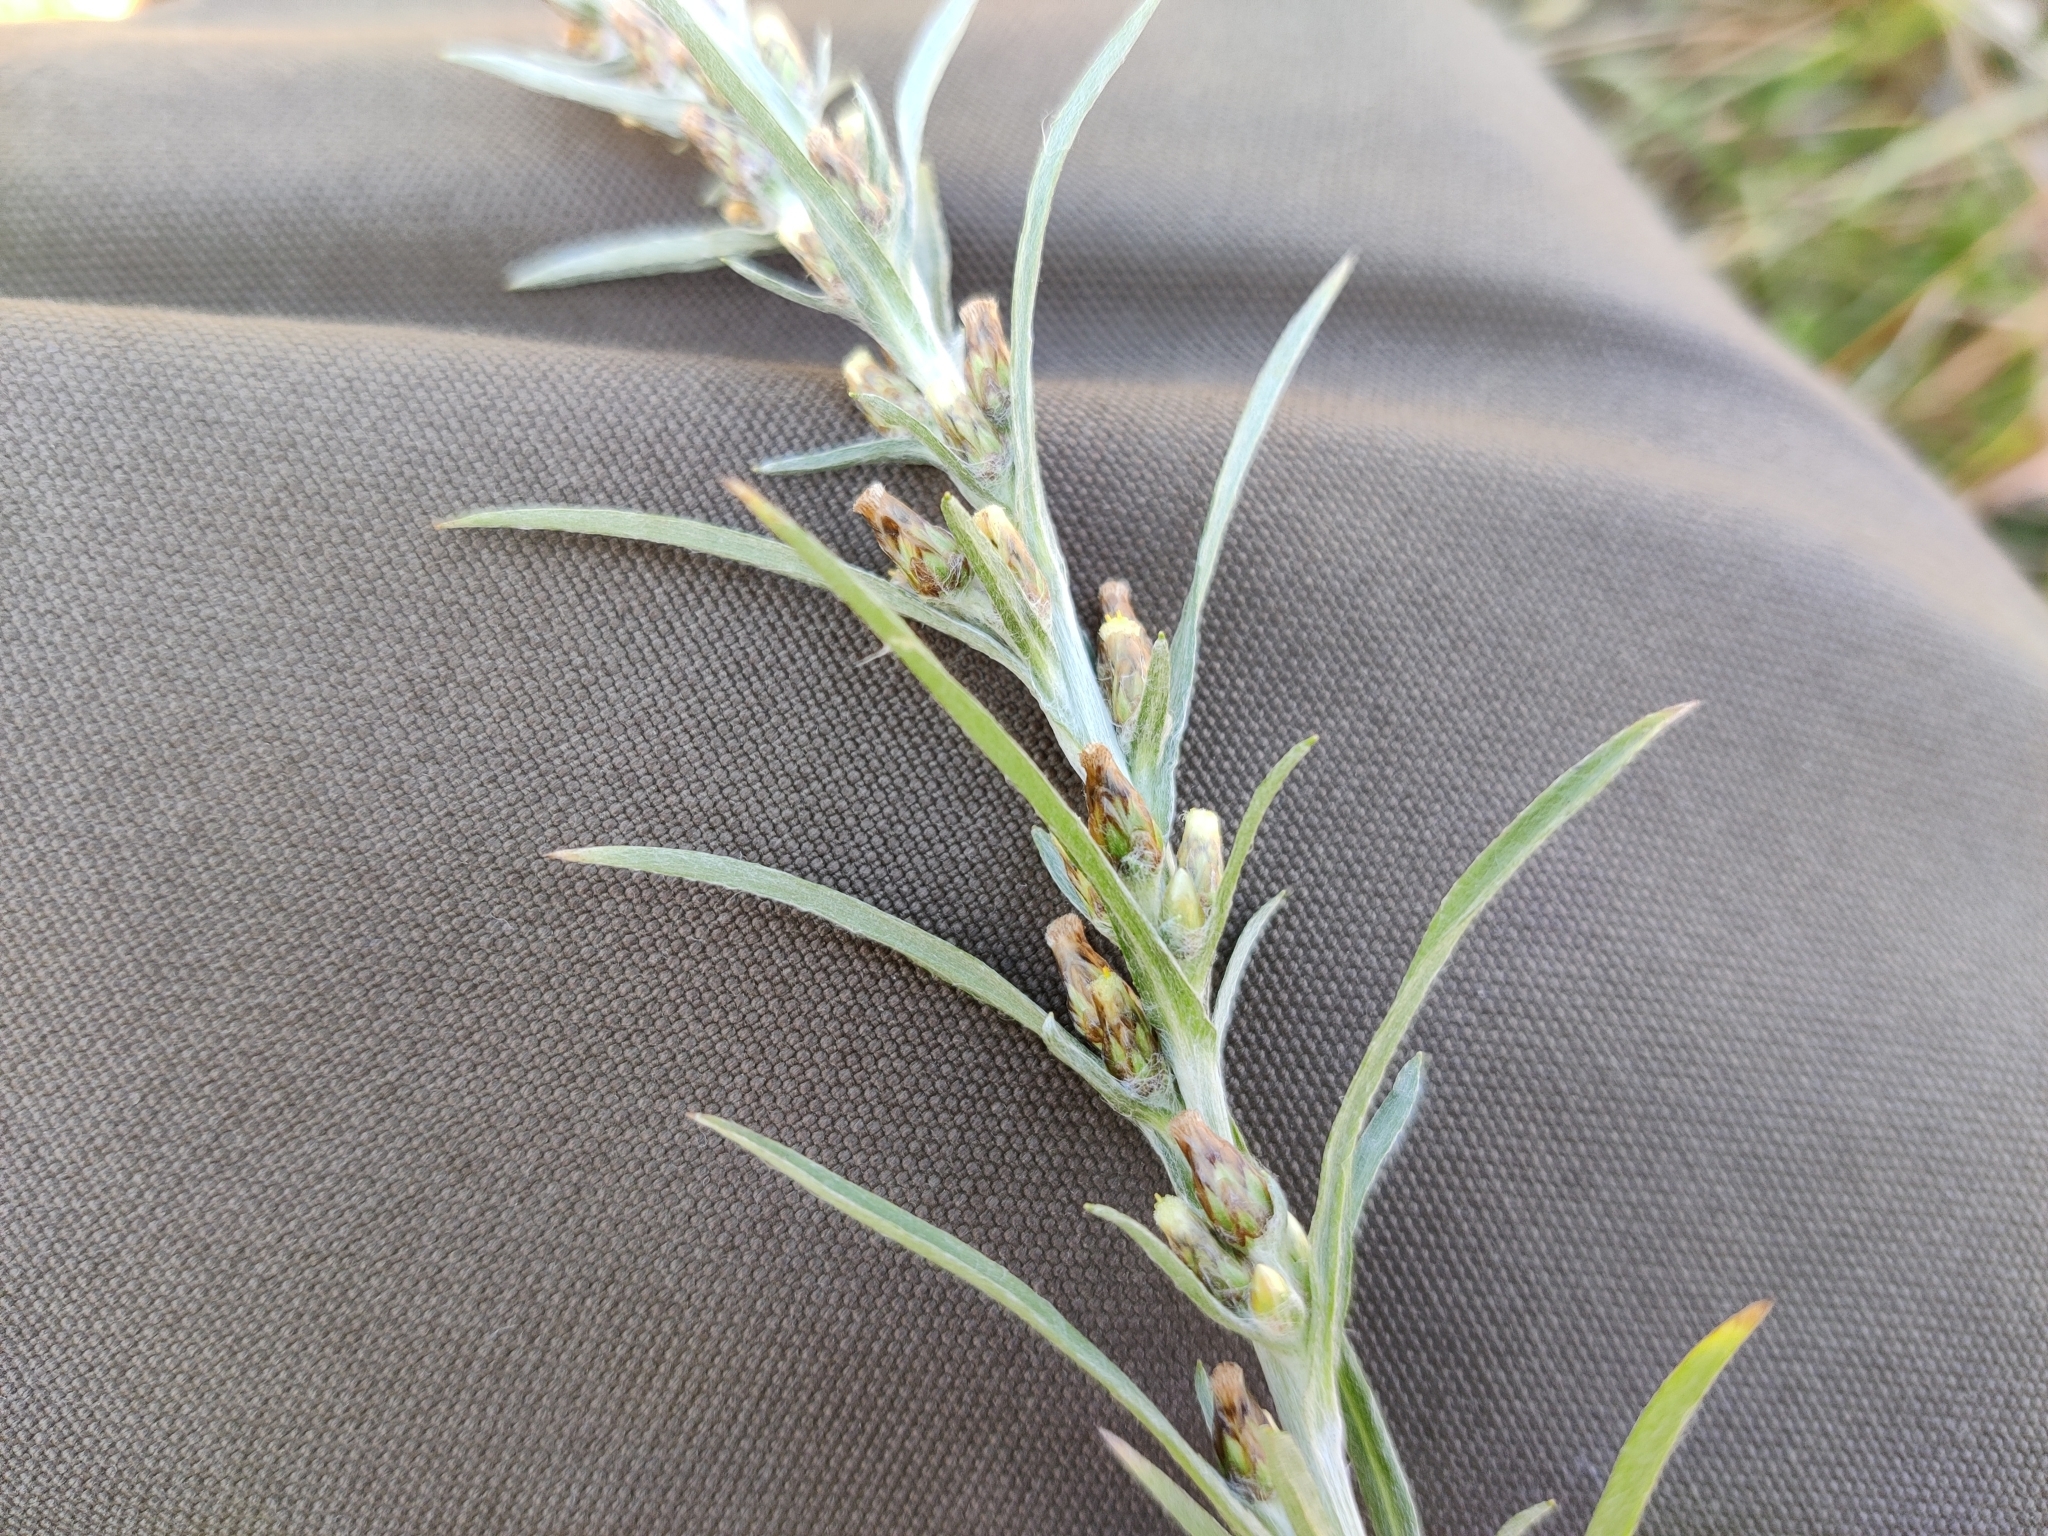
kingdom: Plantae
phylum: Tracheophyta
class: Magnoliopsida
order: Asterales
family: Asteraceae
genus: Omalotheca
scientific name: Omalotheca sylvatica
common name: Heath cudweed
